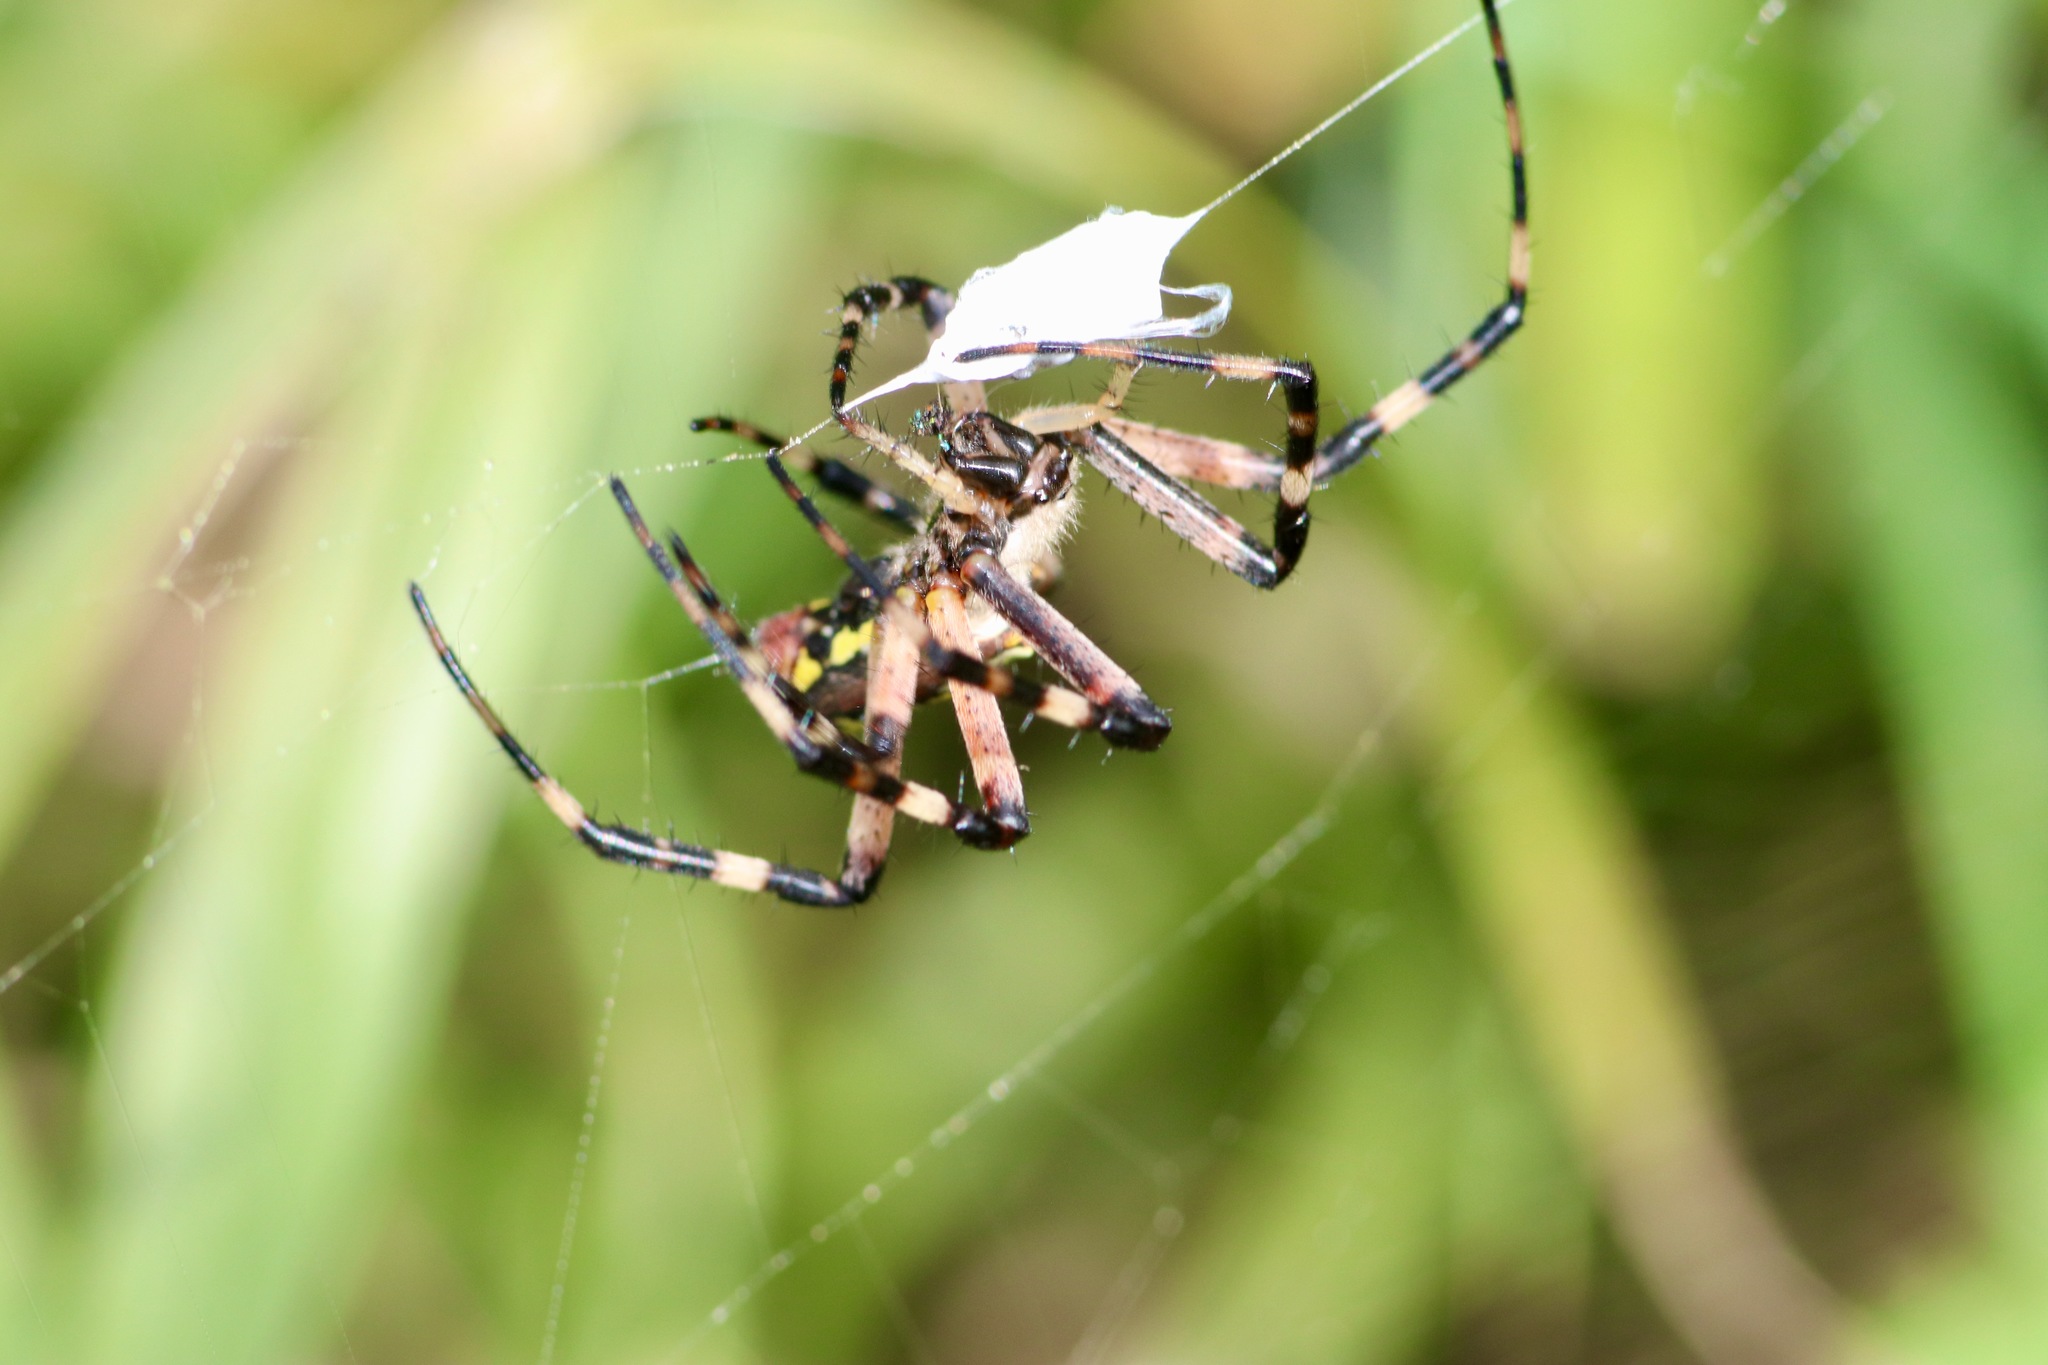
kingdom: Animalia
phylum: Arthropoda
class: Arachnida
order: Araneae
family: Araneidae
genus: Argiope
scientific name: Argiope aurantia
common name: Orb weavers
